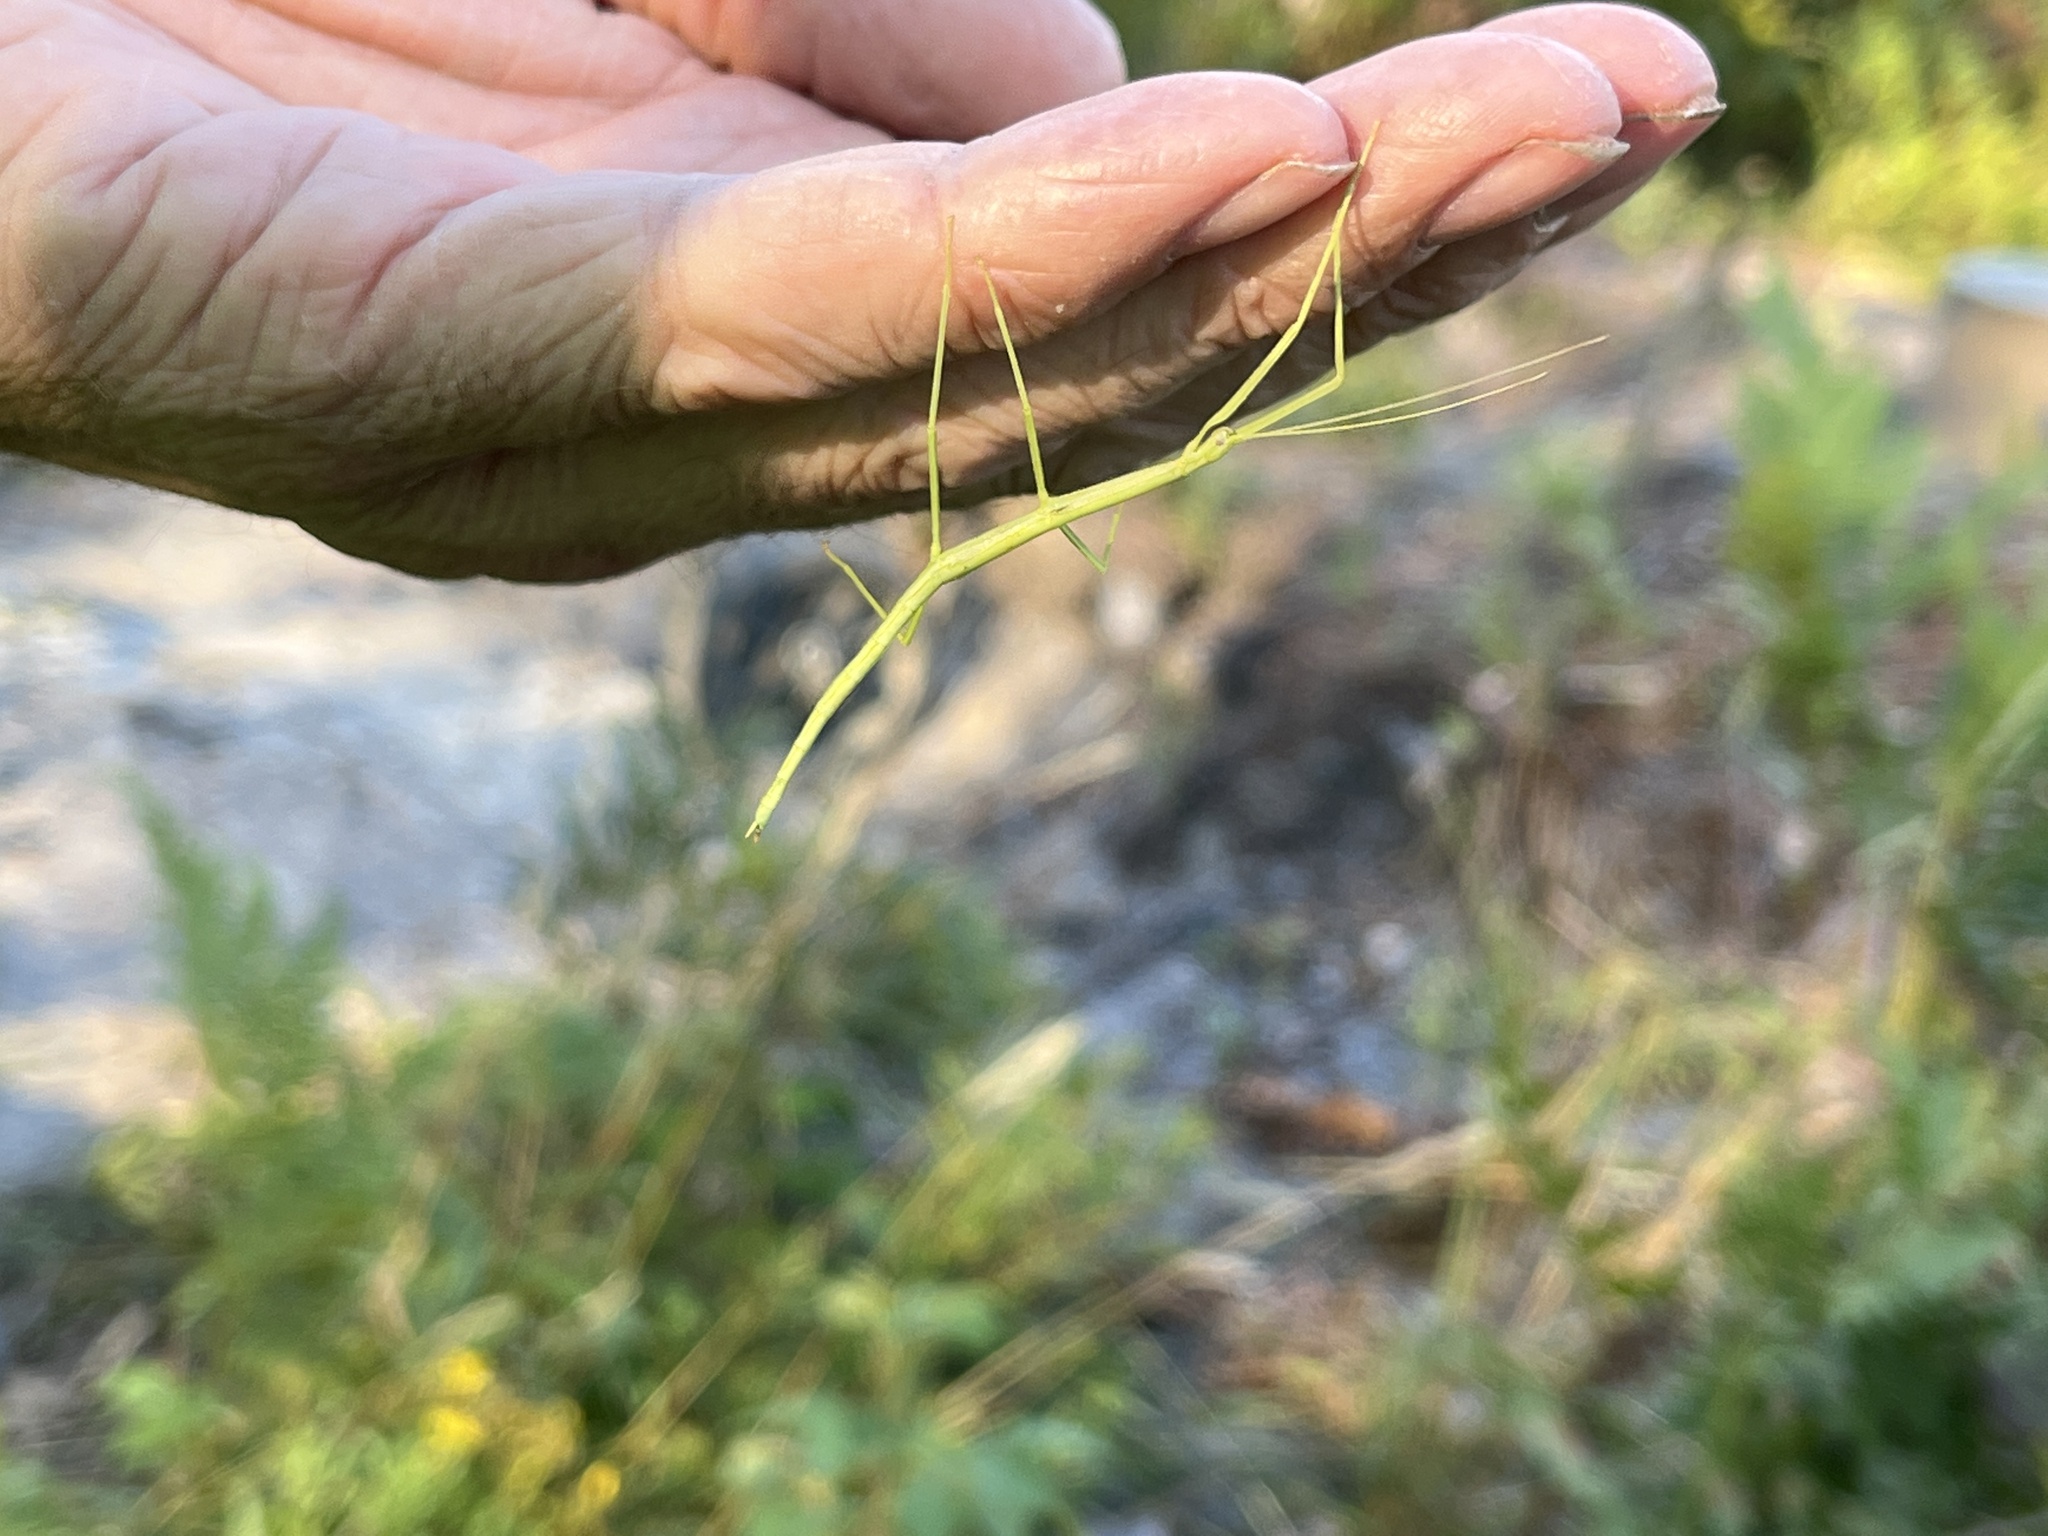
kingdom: Animalia
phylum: Arthropoda
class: Insecta
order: Phasmida
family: Diapheromeridae
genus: Diapheromera
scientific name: Diapheromera femorata
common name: Common american walkingstick
